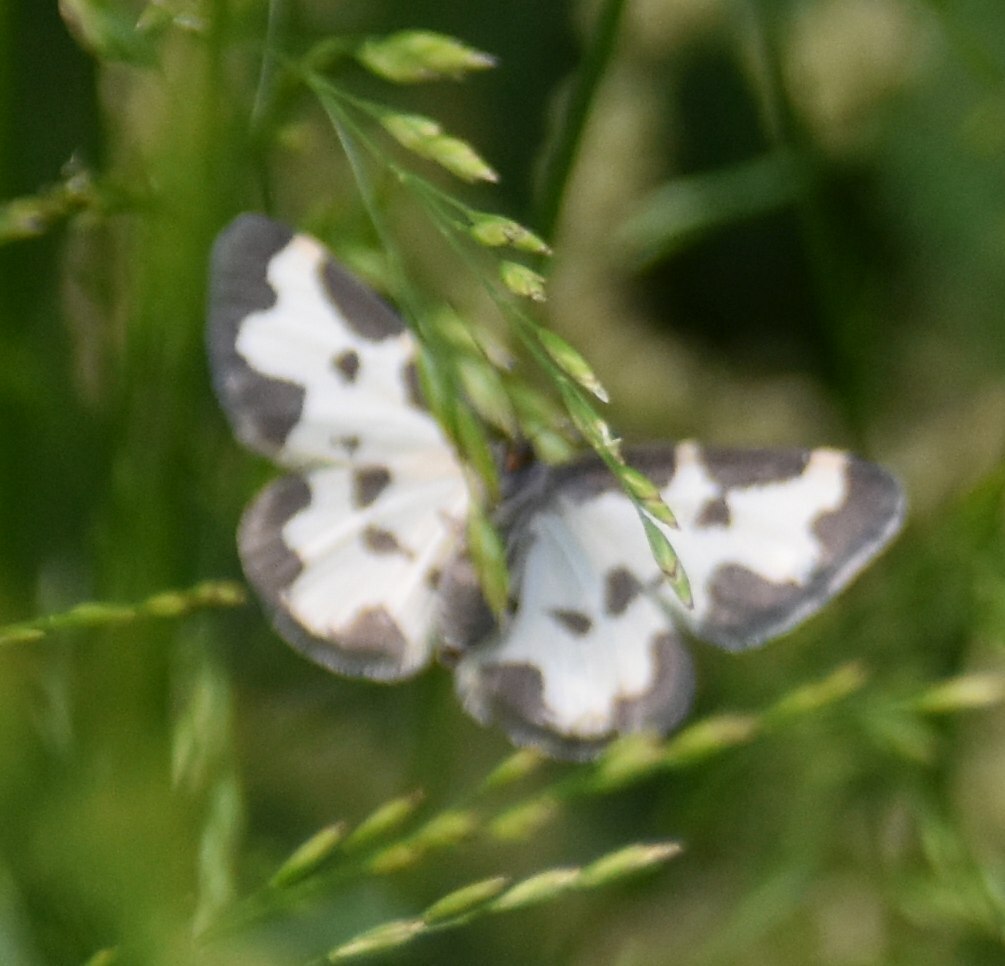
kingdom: Animalia
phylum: Arthropoda
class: Insecta
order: Lepidoptera
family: Geometridae
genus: Lomaspilis
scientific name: Lomaspilis marginata
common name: Clouded border
